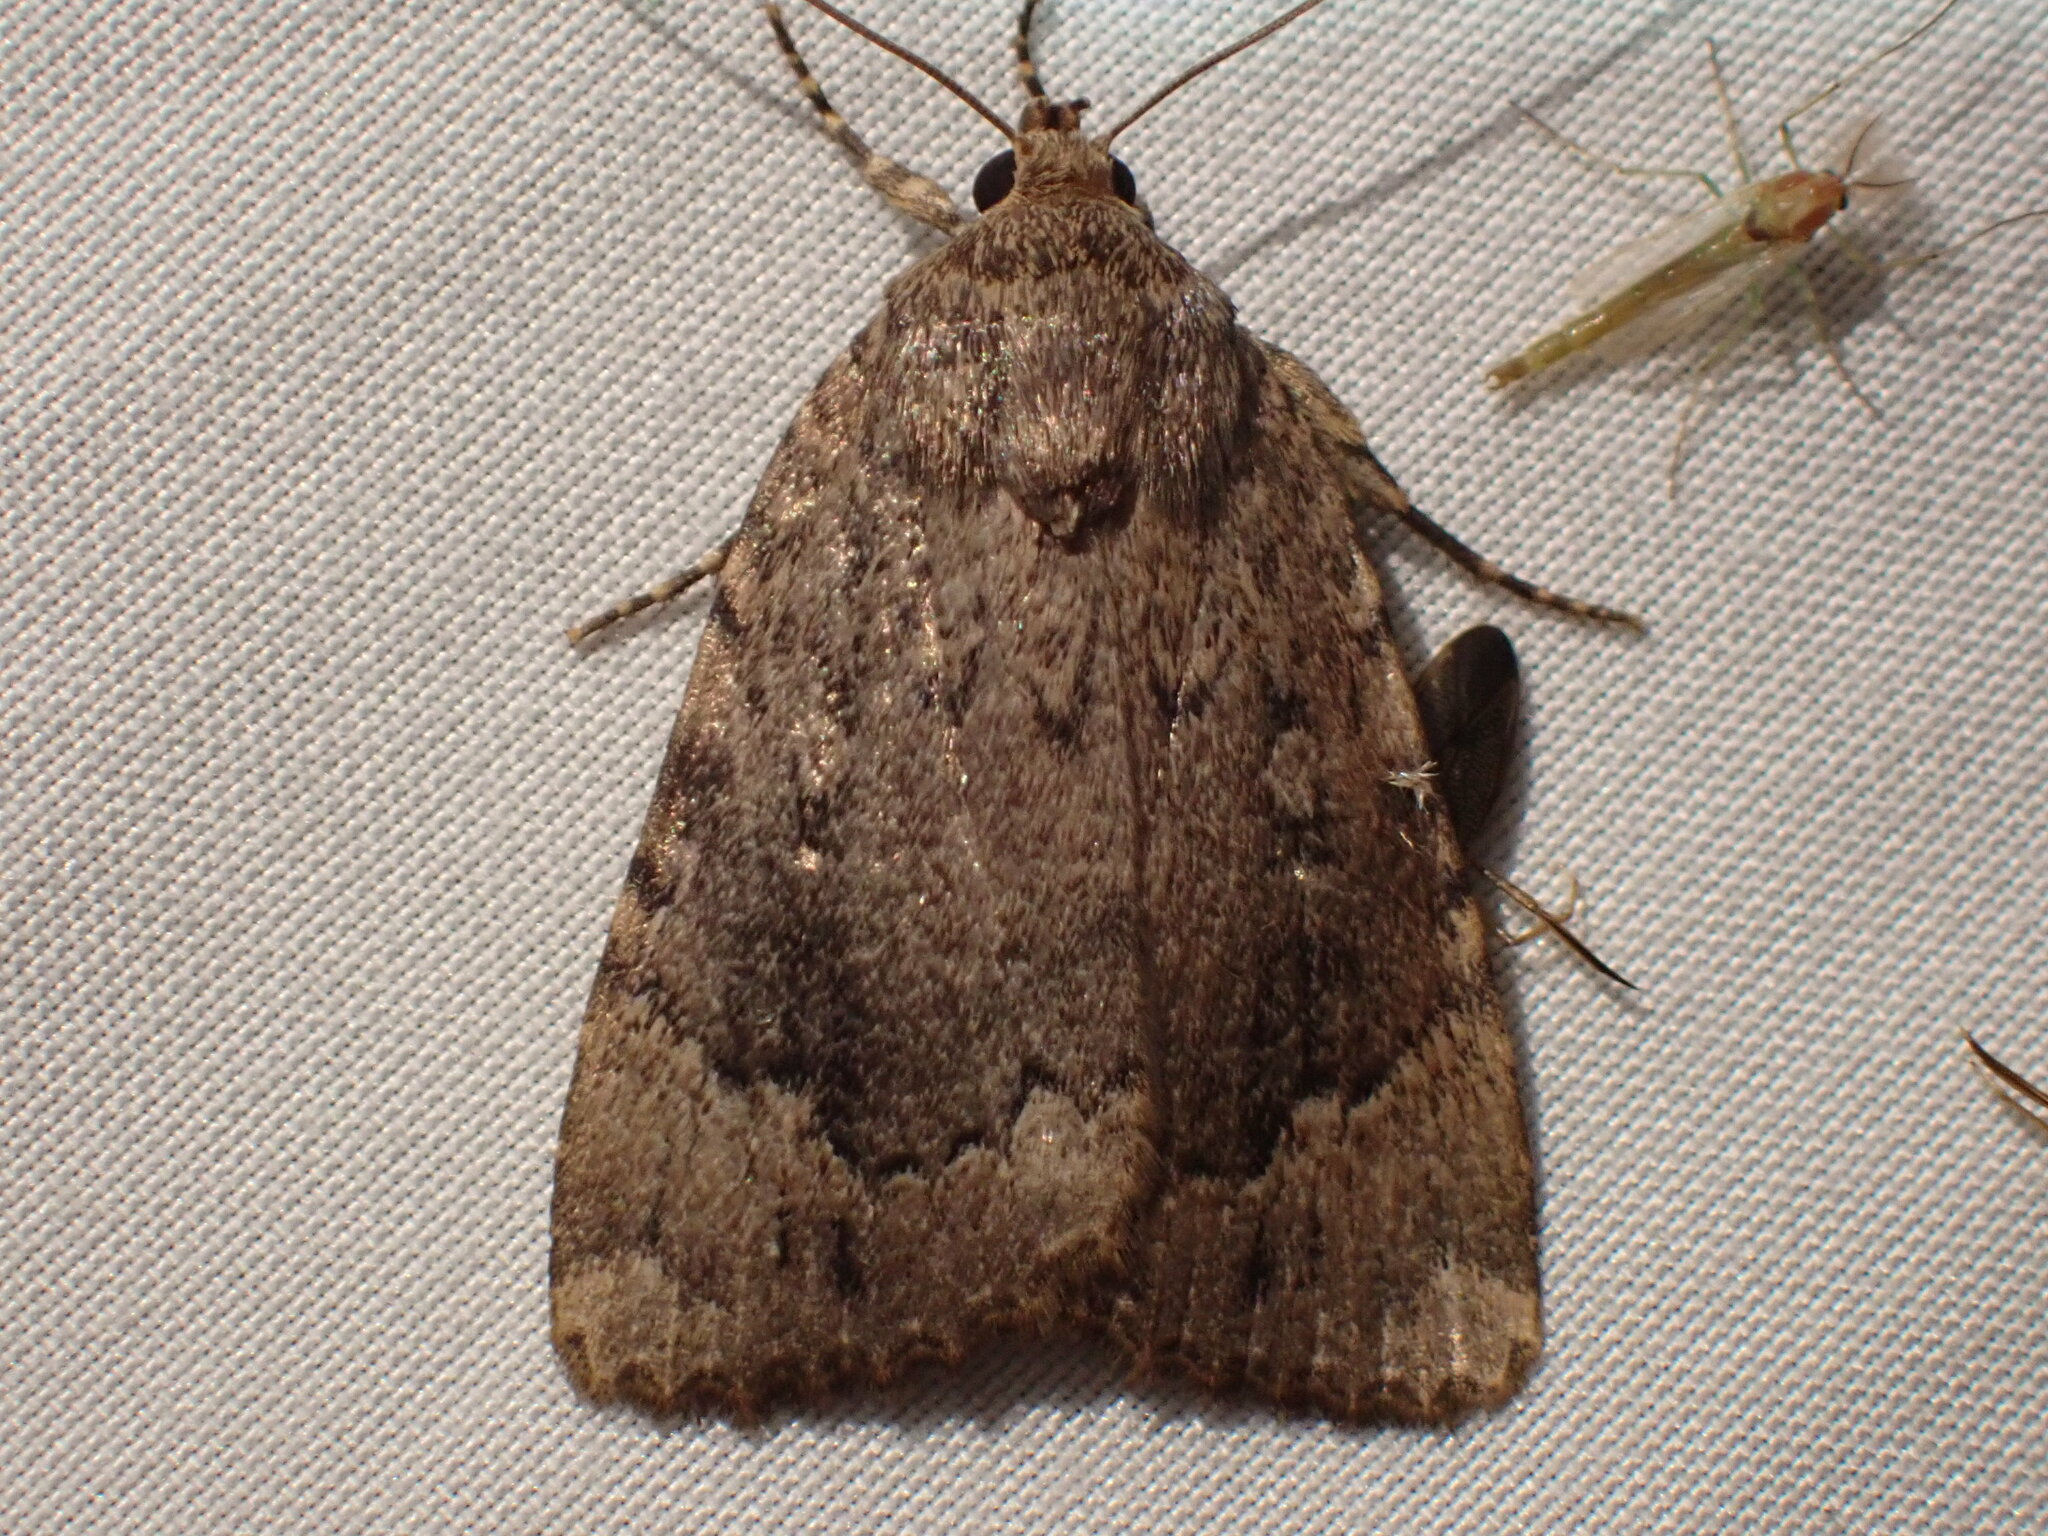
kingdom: Animalia
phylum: Arthropoda
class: Insecta
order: Lepidoptera
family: Noctuidae
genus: Amphipyra
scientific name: Amphipyra pyramidoides
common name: American copper underwing
